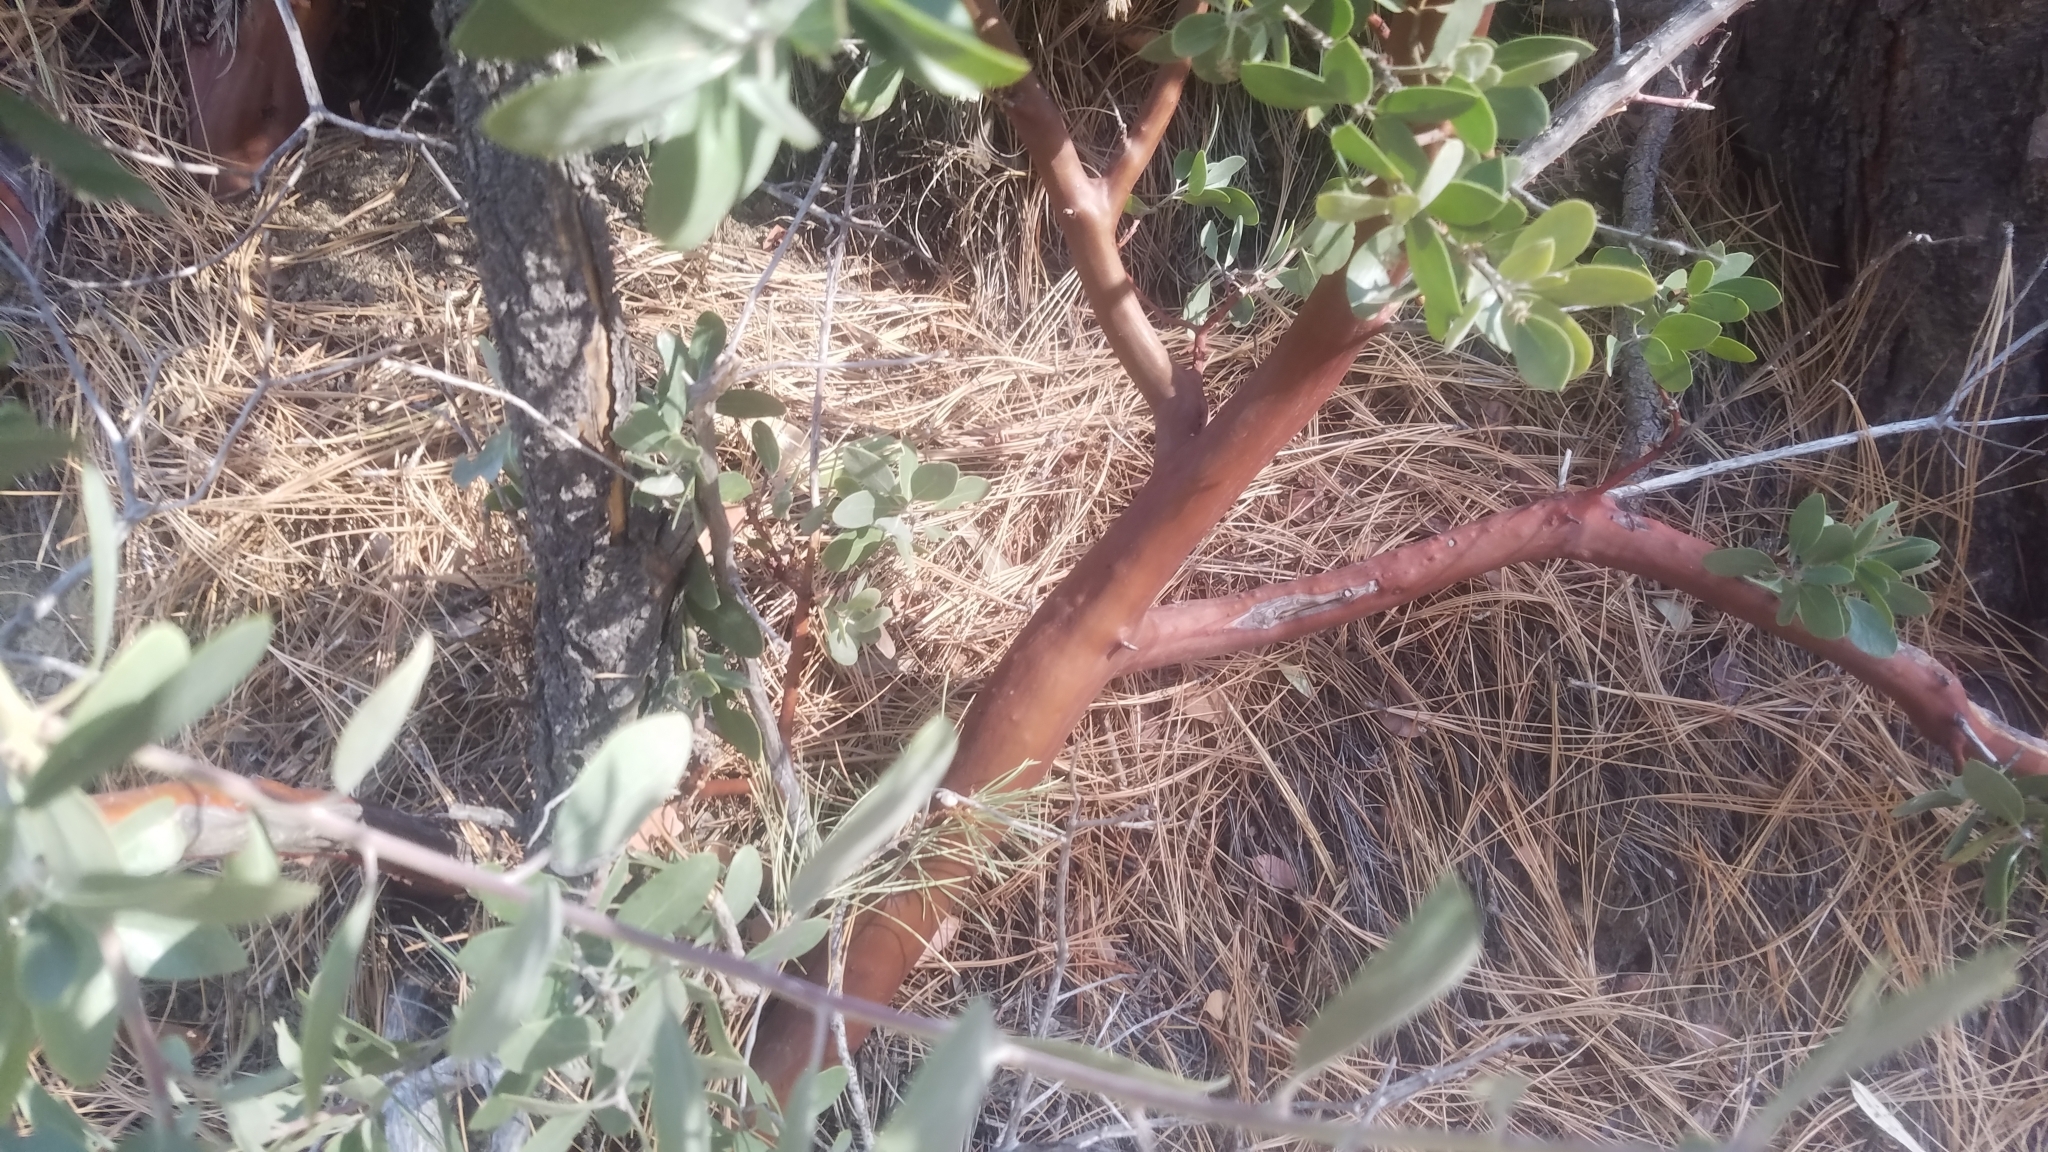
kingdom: Plantae
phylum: Tracheophyta
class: Magnoliopsida
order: Ericales
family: Ericaceae
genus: Arctostaphylos
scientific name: Arctostaphylos pungens
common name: Mexican manzanita
